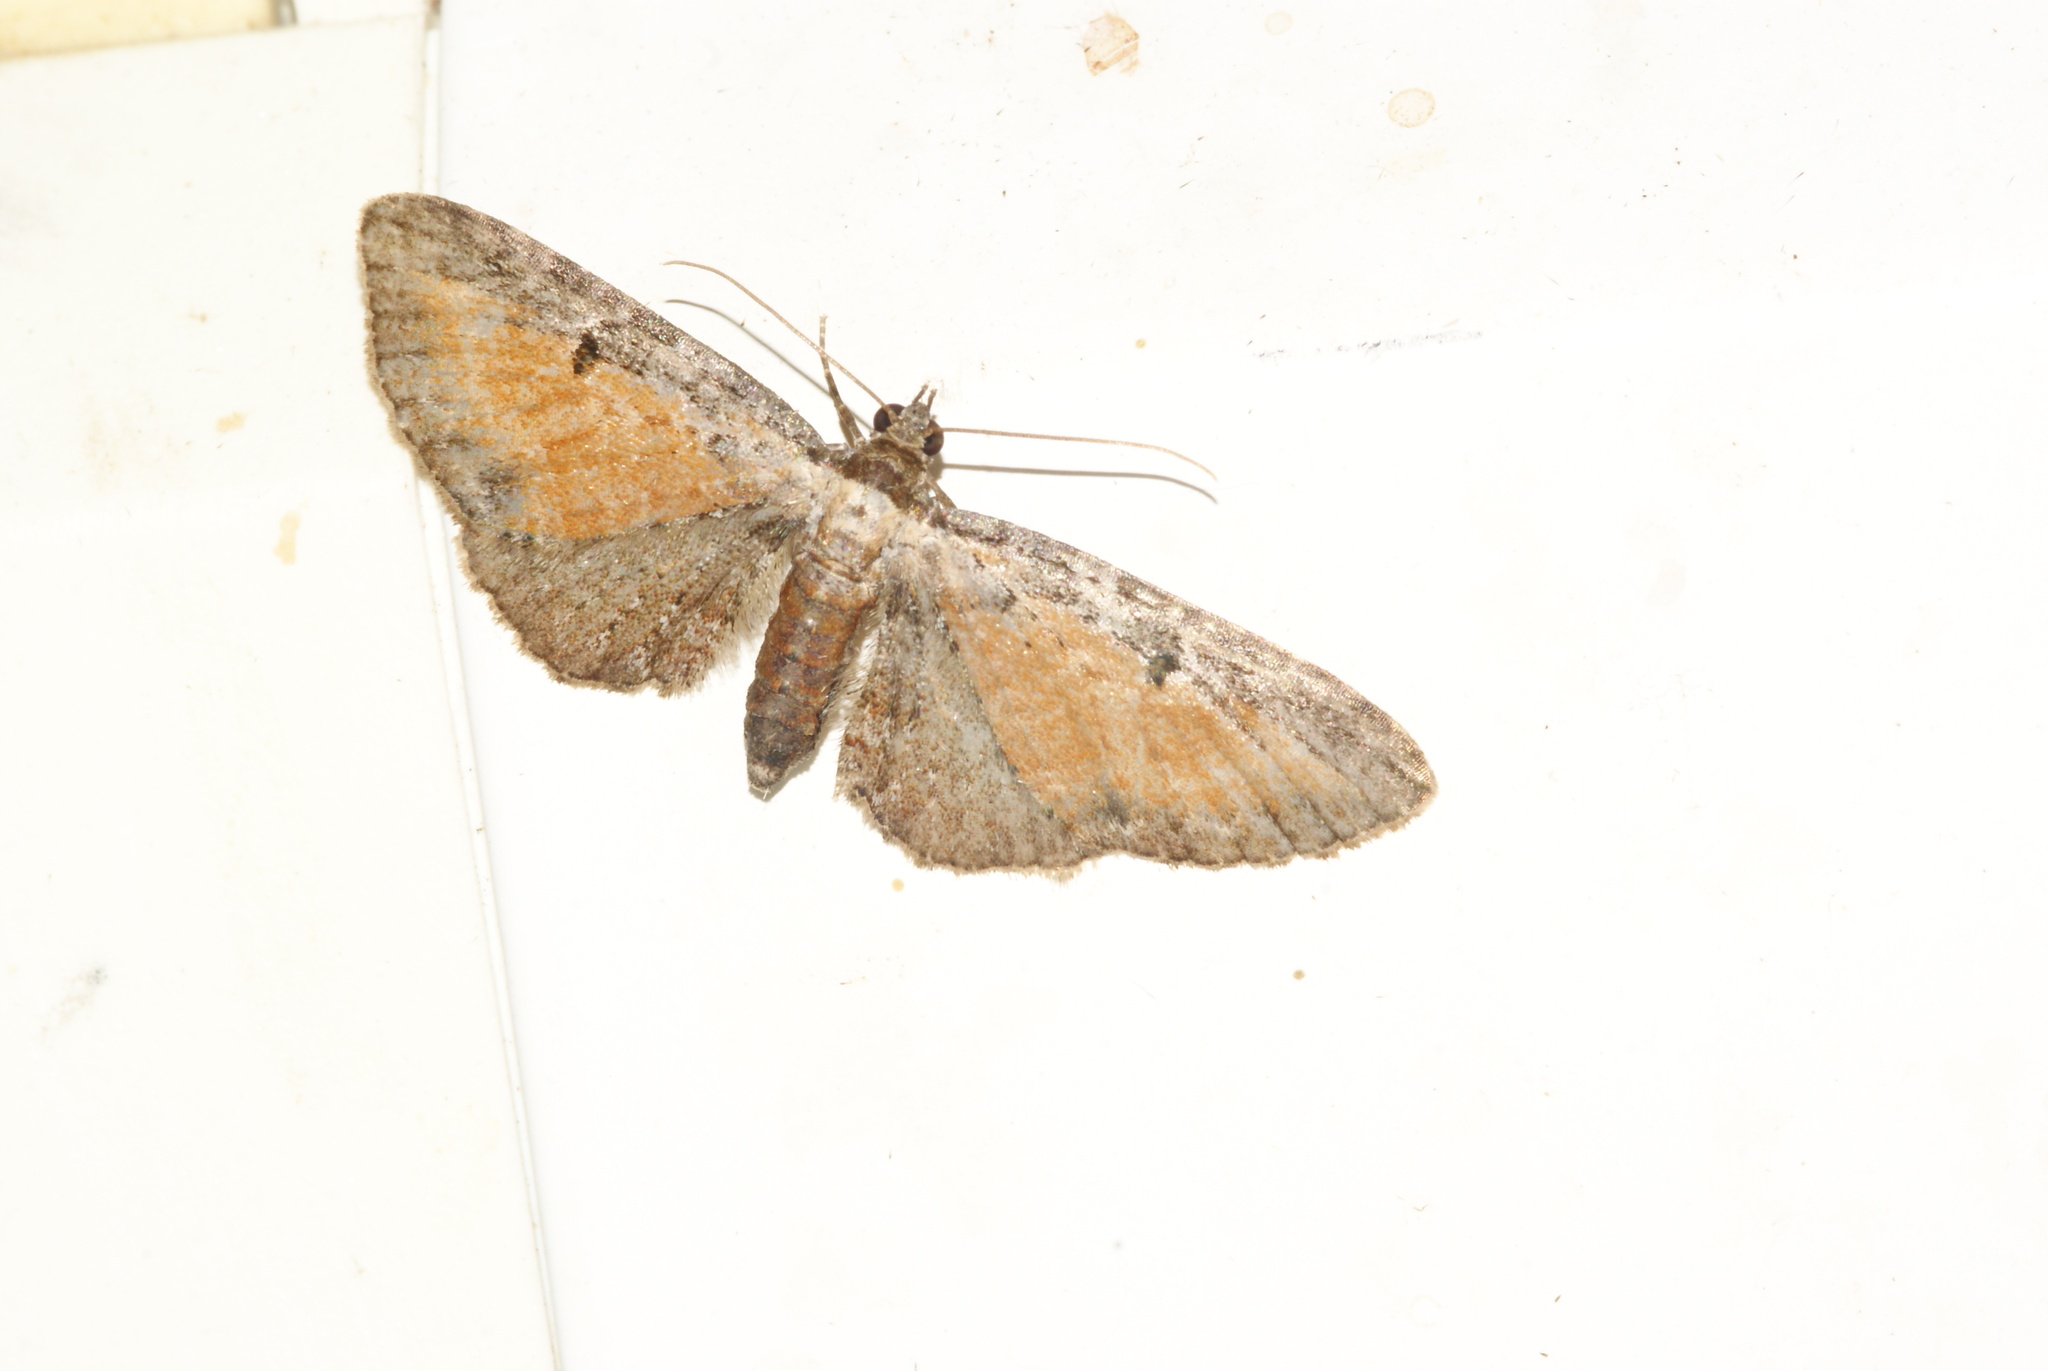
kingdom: Animalia
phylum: Arthropoda
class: Insecta
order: Lepidoptera
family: Geometridae
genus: Eupithecia
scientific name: Eupithecia icterata
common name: Tawny speckled pug
